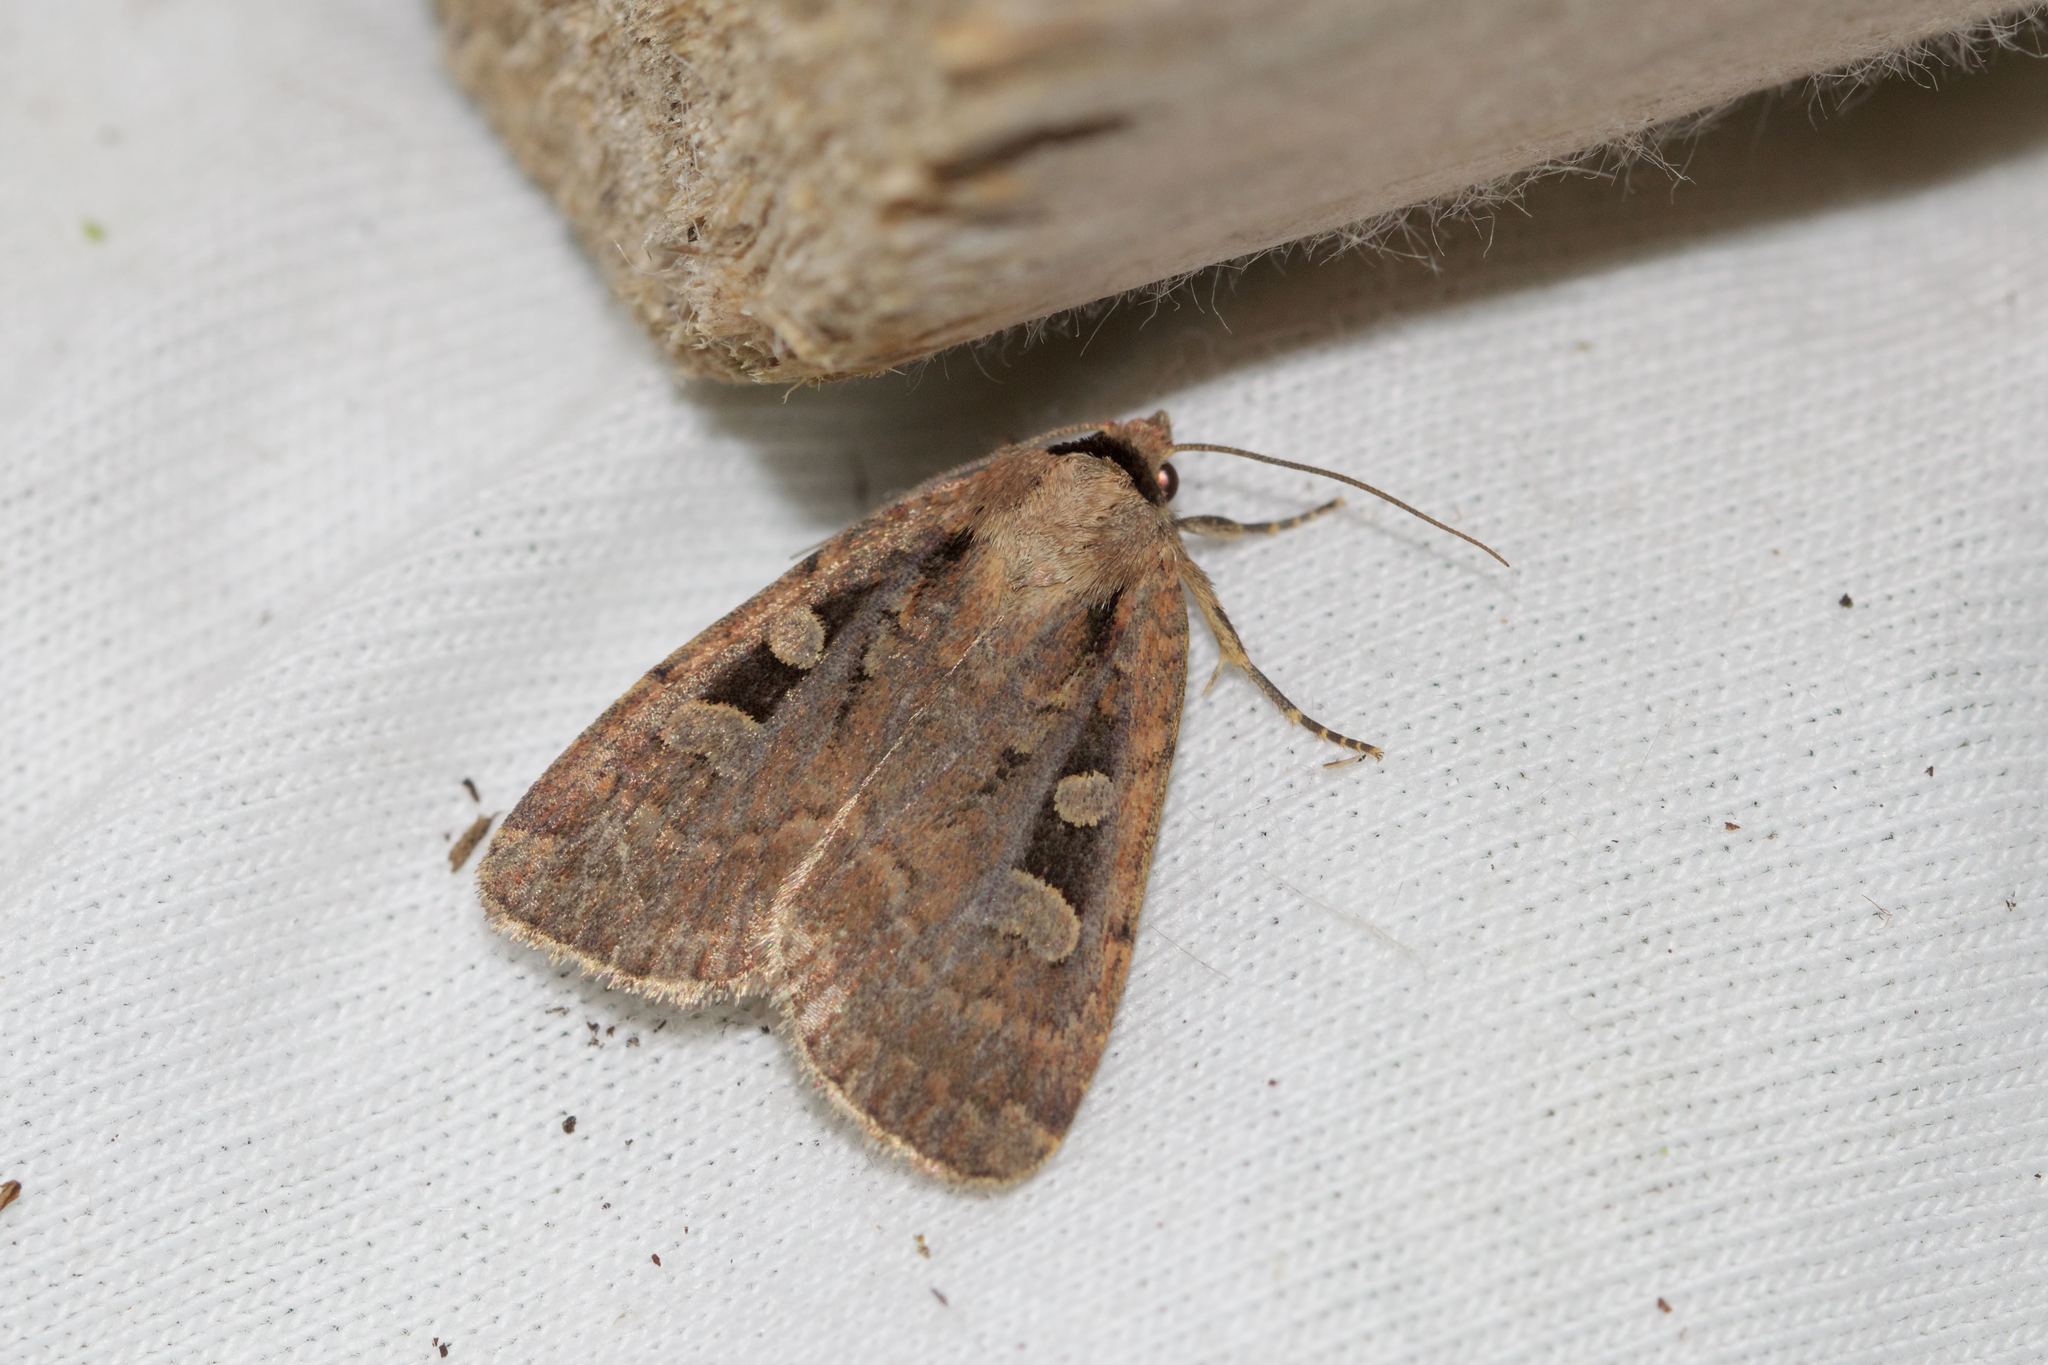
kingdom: Animalia
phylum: Arthropoda
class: Insecta
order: Lepidoptera
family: Noctuidae
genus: Eueretagrotis
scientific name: Eueretagrotis perattentus
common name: Two-spot dart moth
